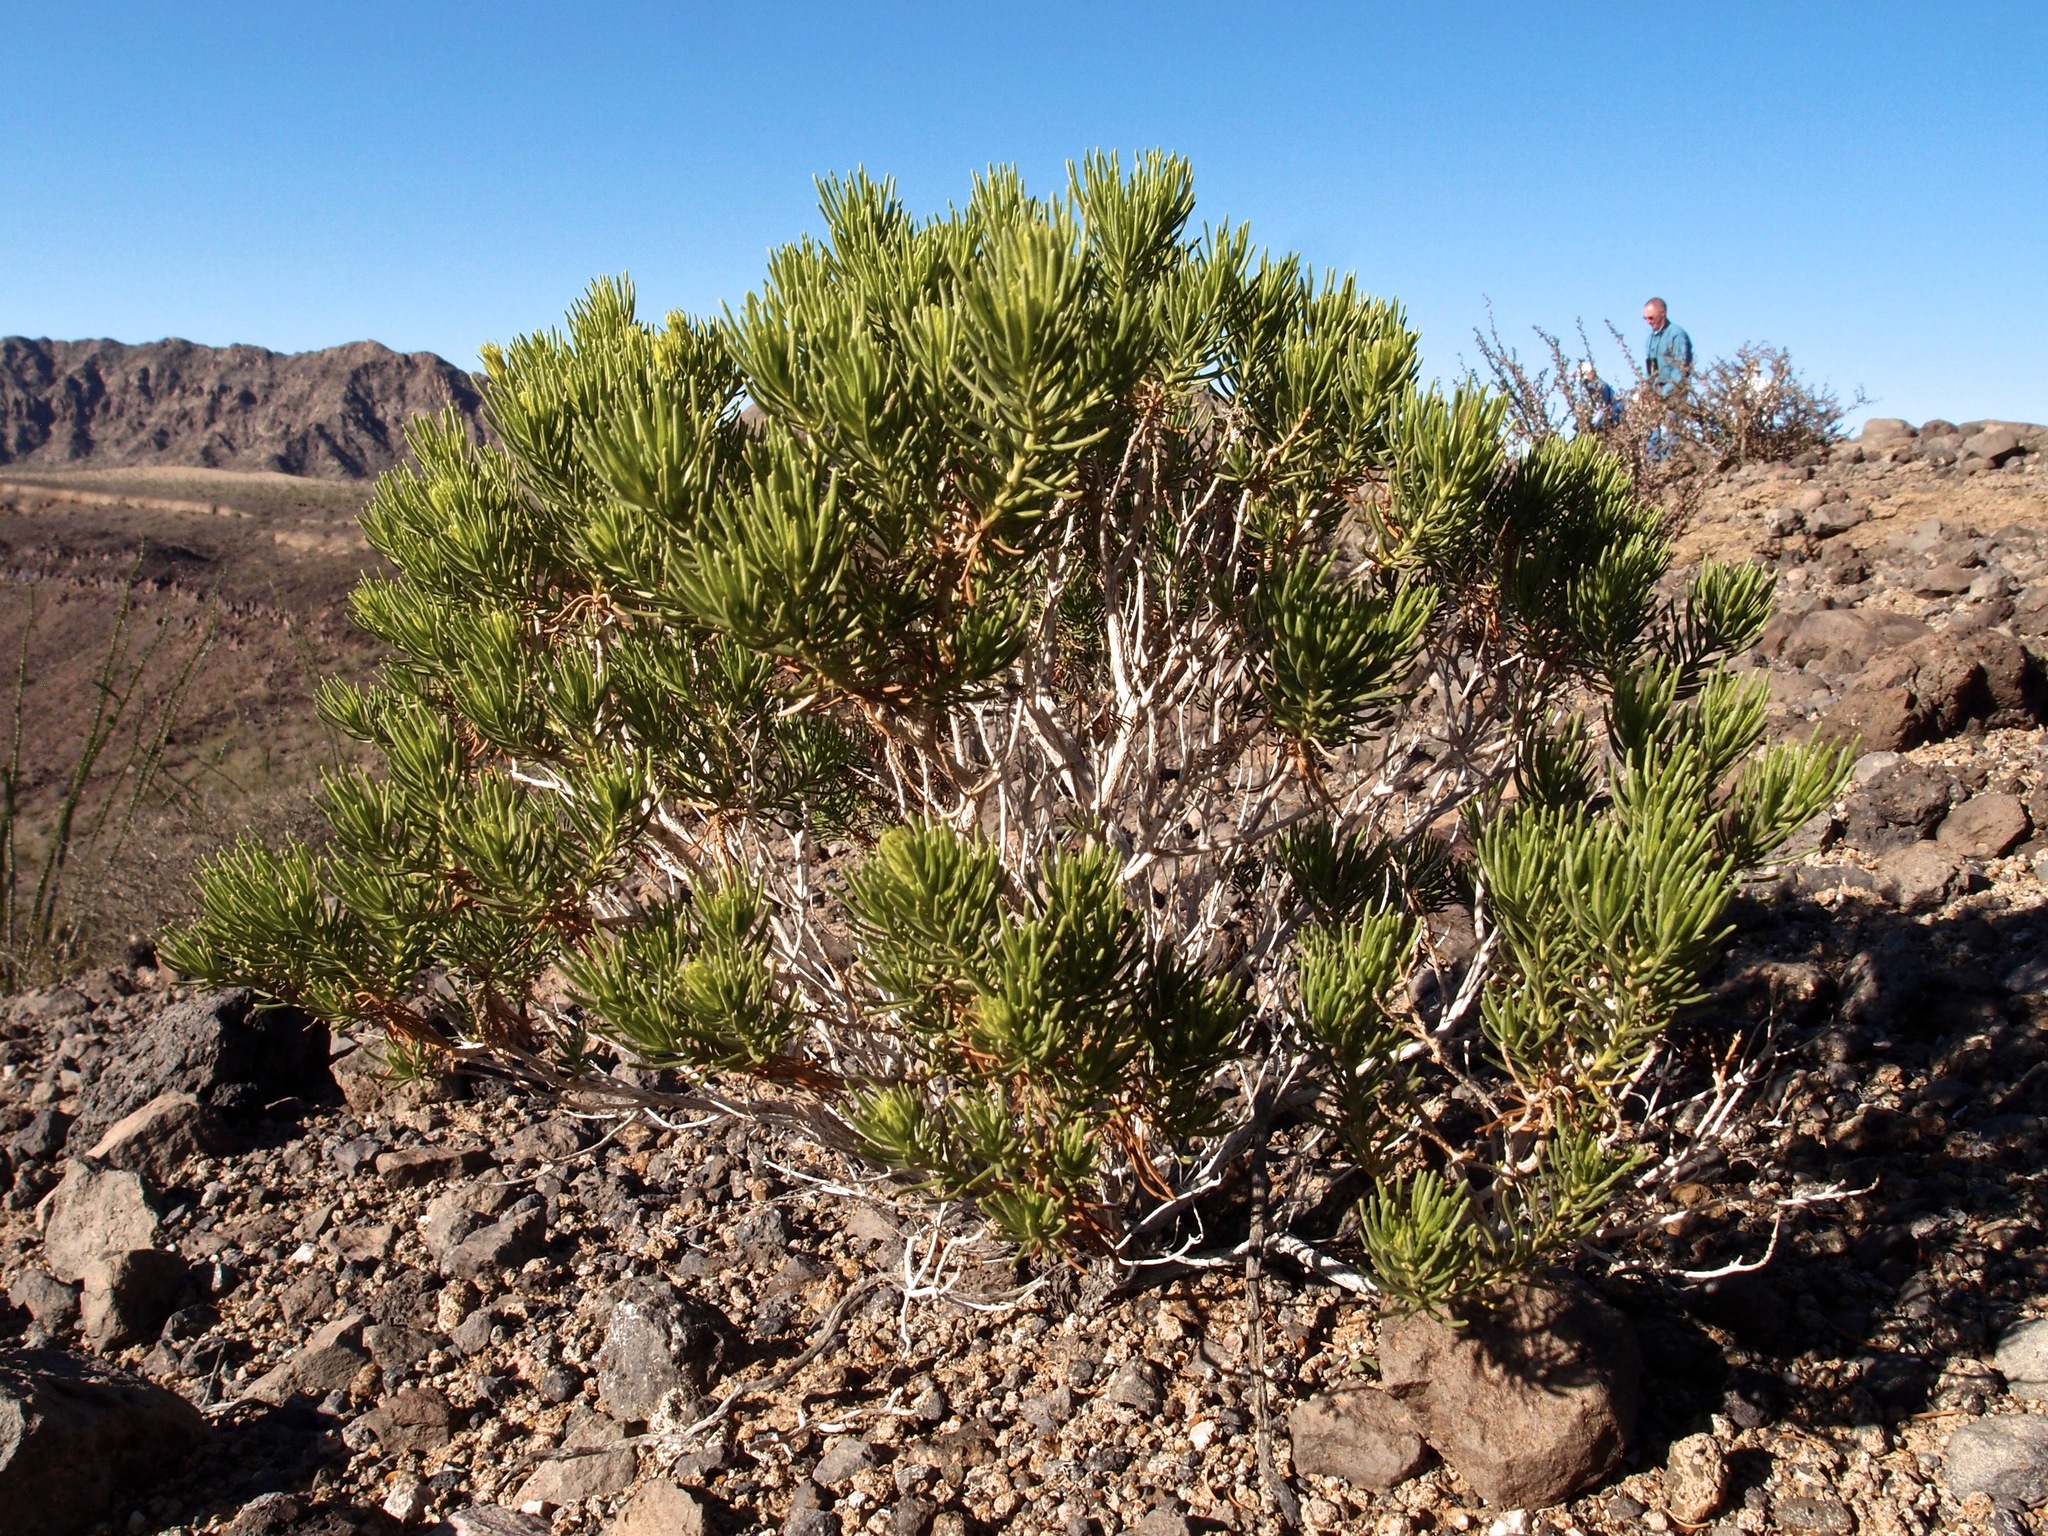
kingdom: Plantae
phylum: Tracheophyta
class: Magnoliopsida
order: Asterales
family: Asteraceae
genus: Peucephyllum
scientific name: Peucephyllum schottii
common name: Pygmy-cedar
